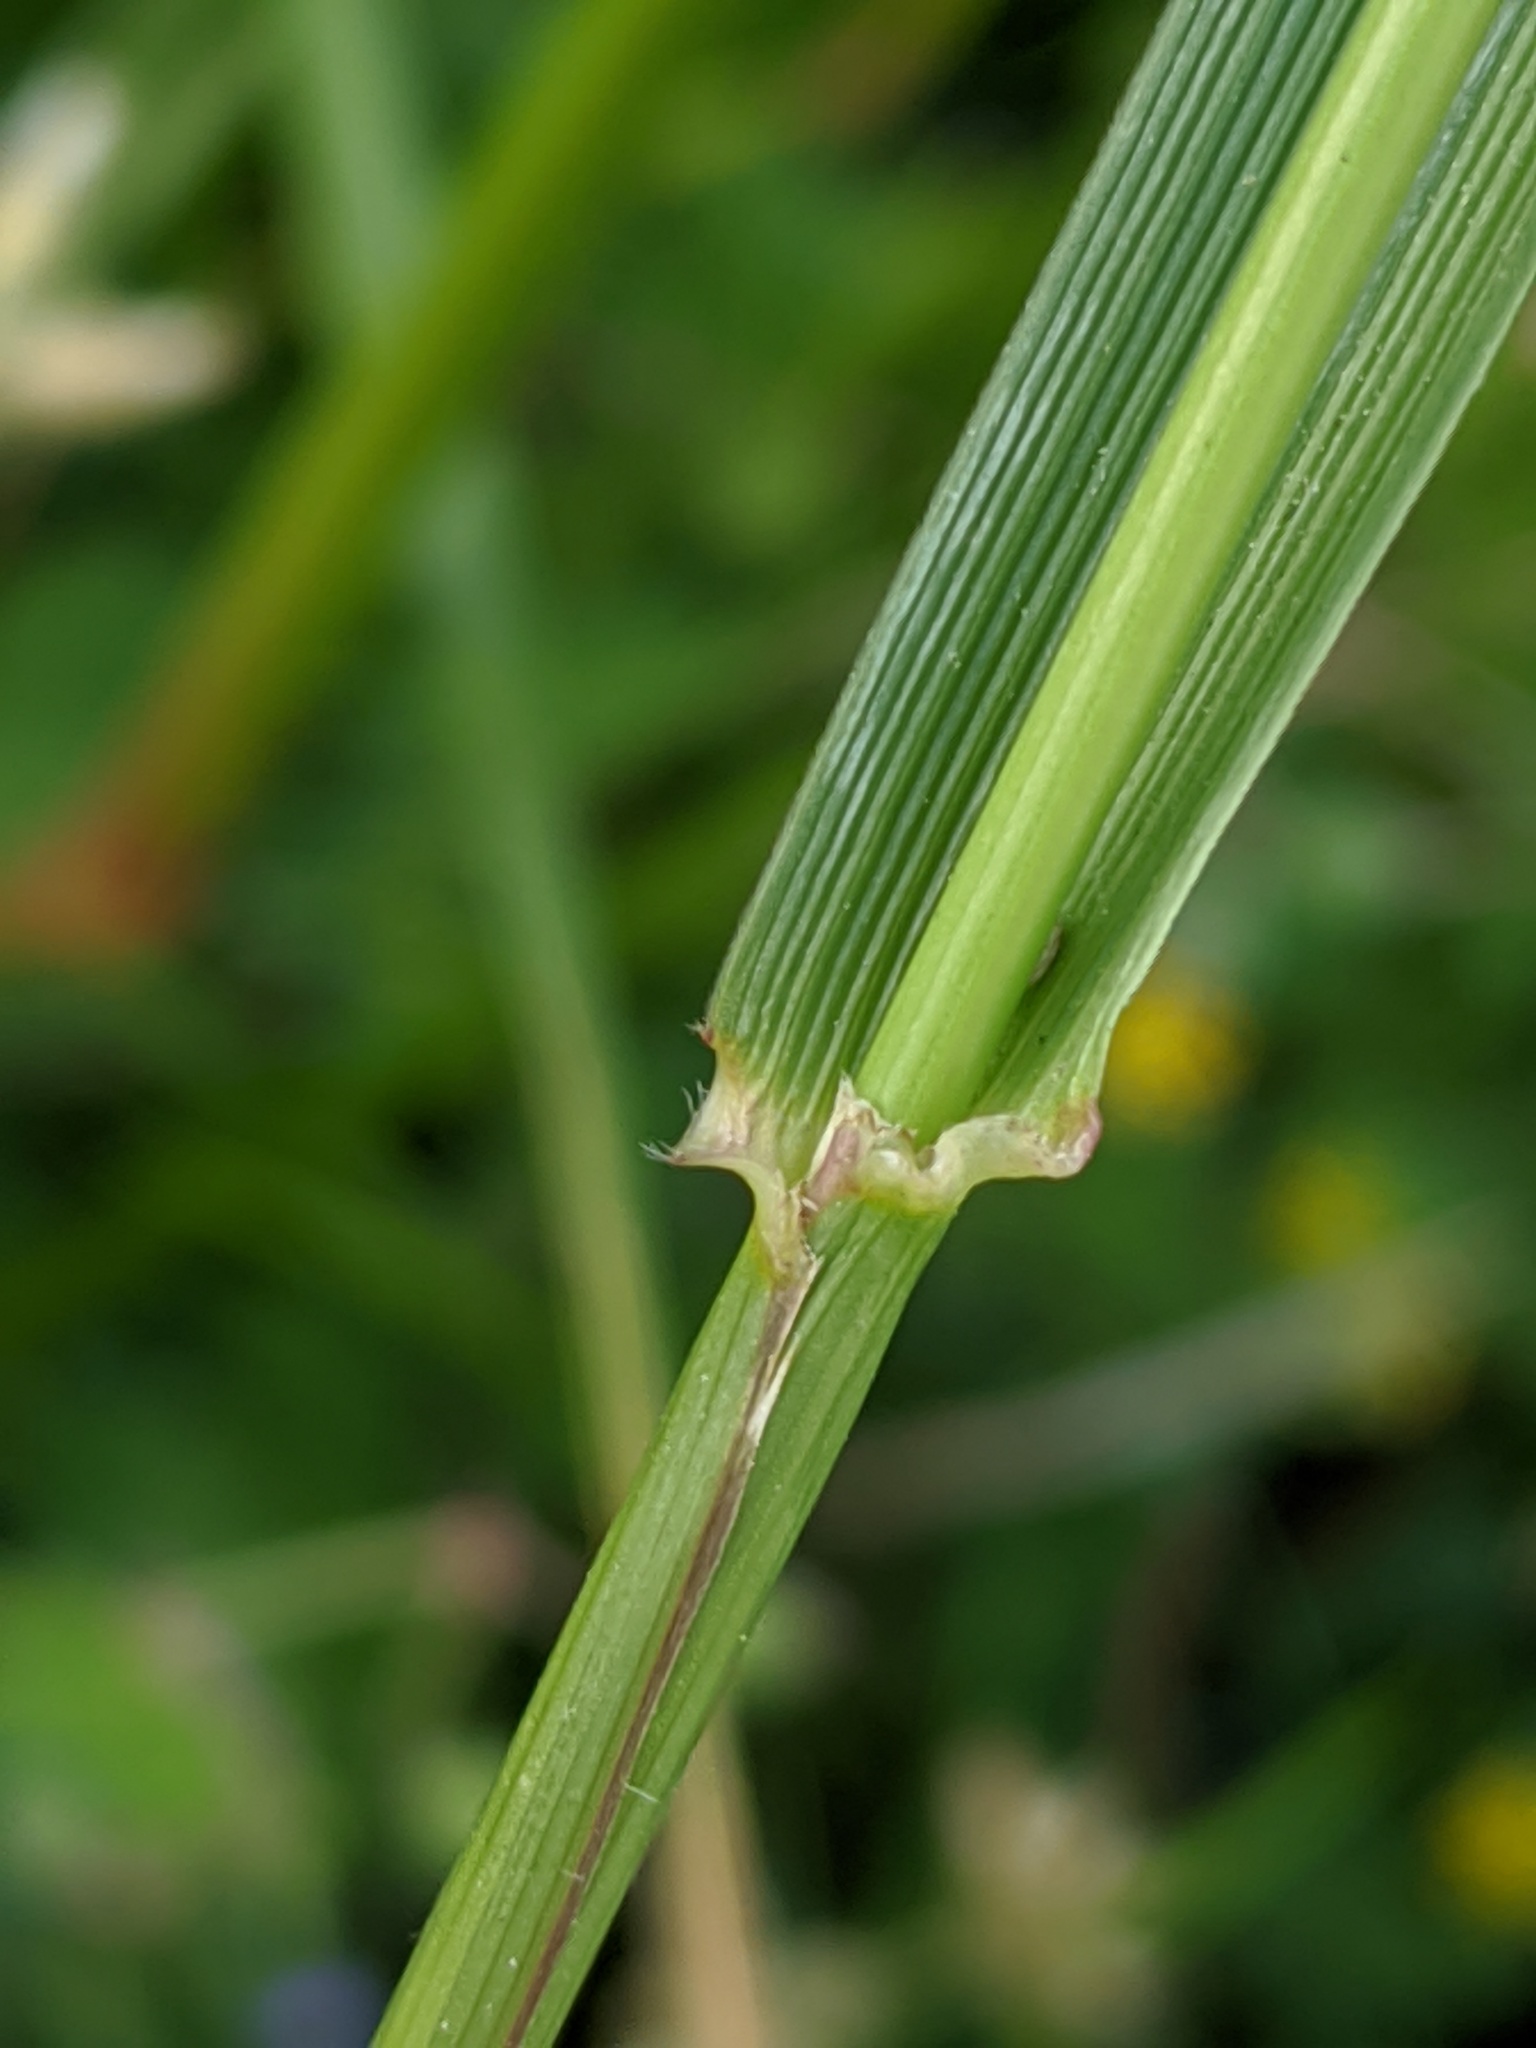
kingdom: Plantae
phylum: Tracheophyta
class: Liliopsida
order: Poales
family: Poaceae
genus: Lolium
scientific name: Lolium arundinaceum
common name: Reed fescue
